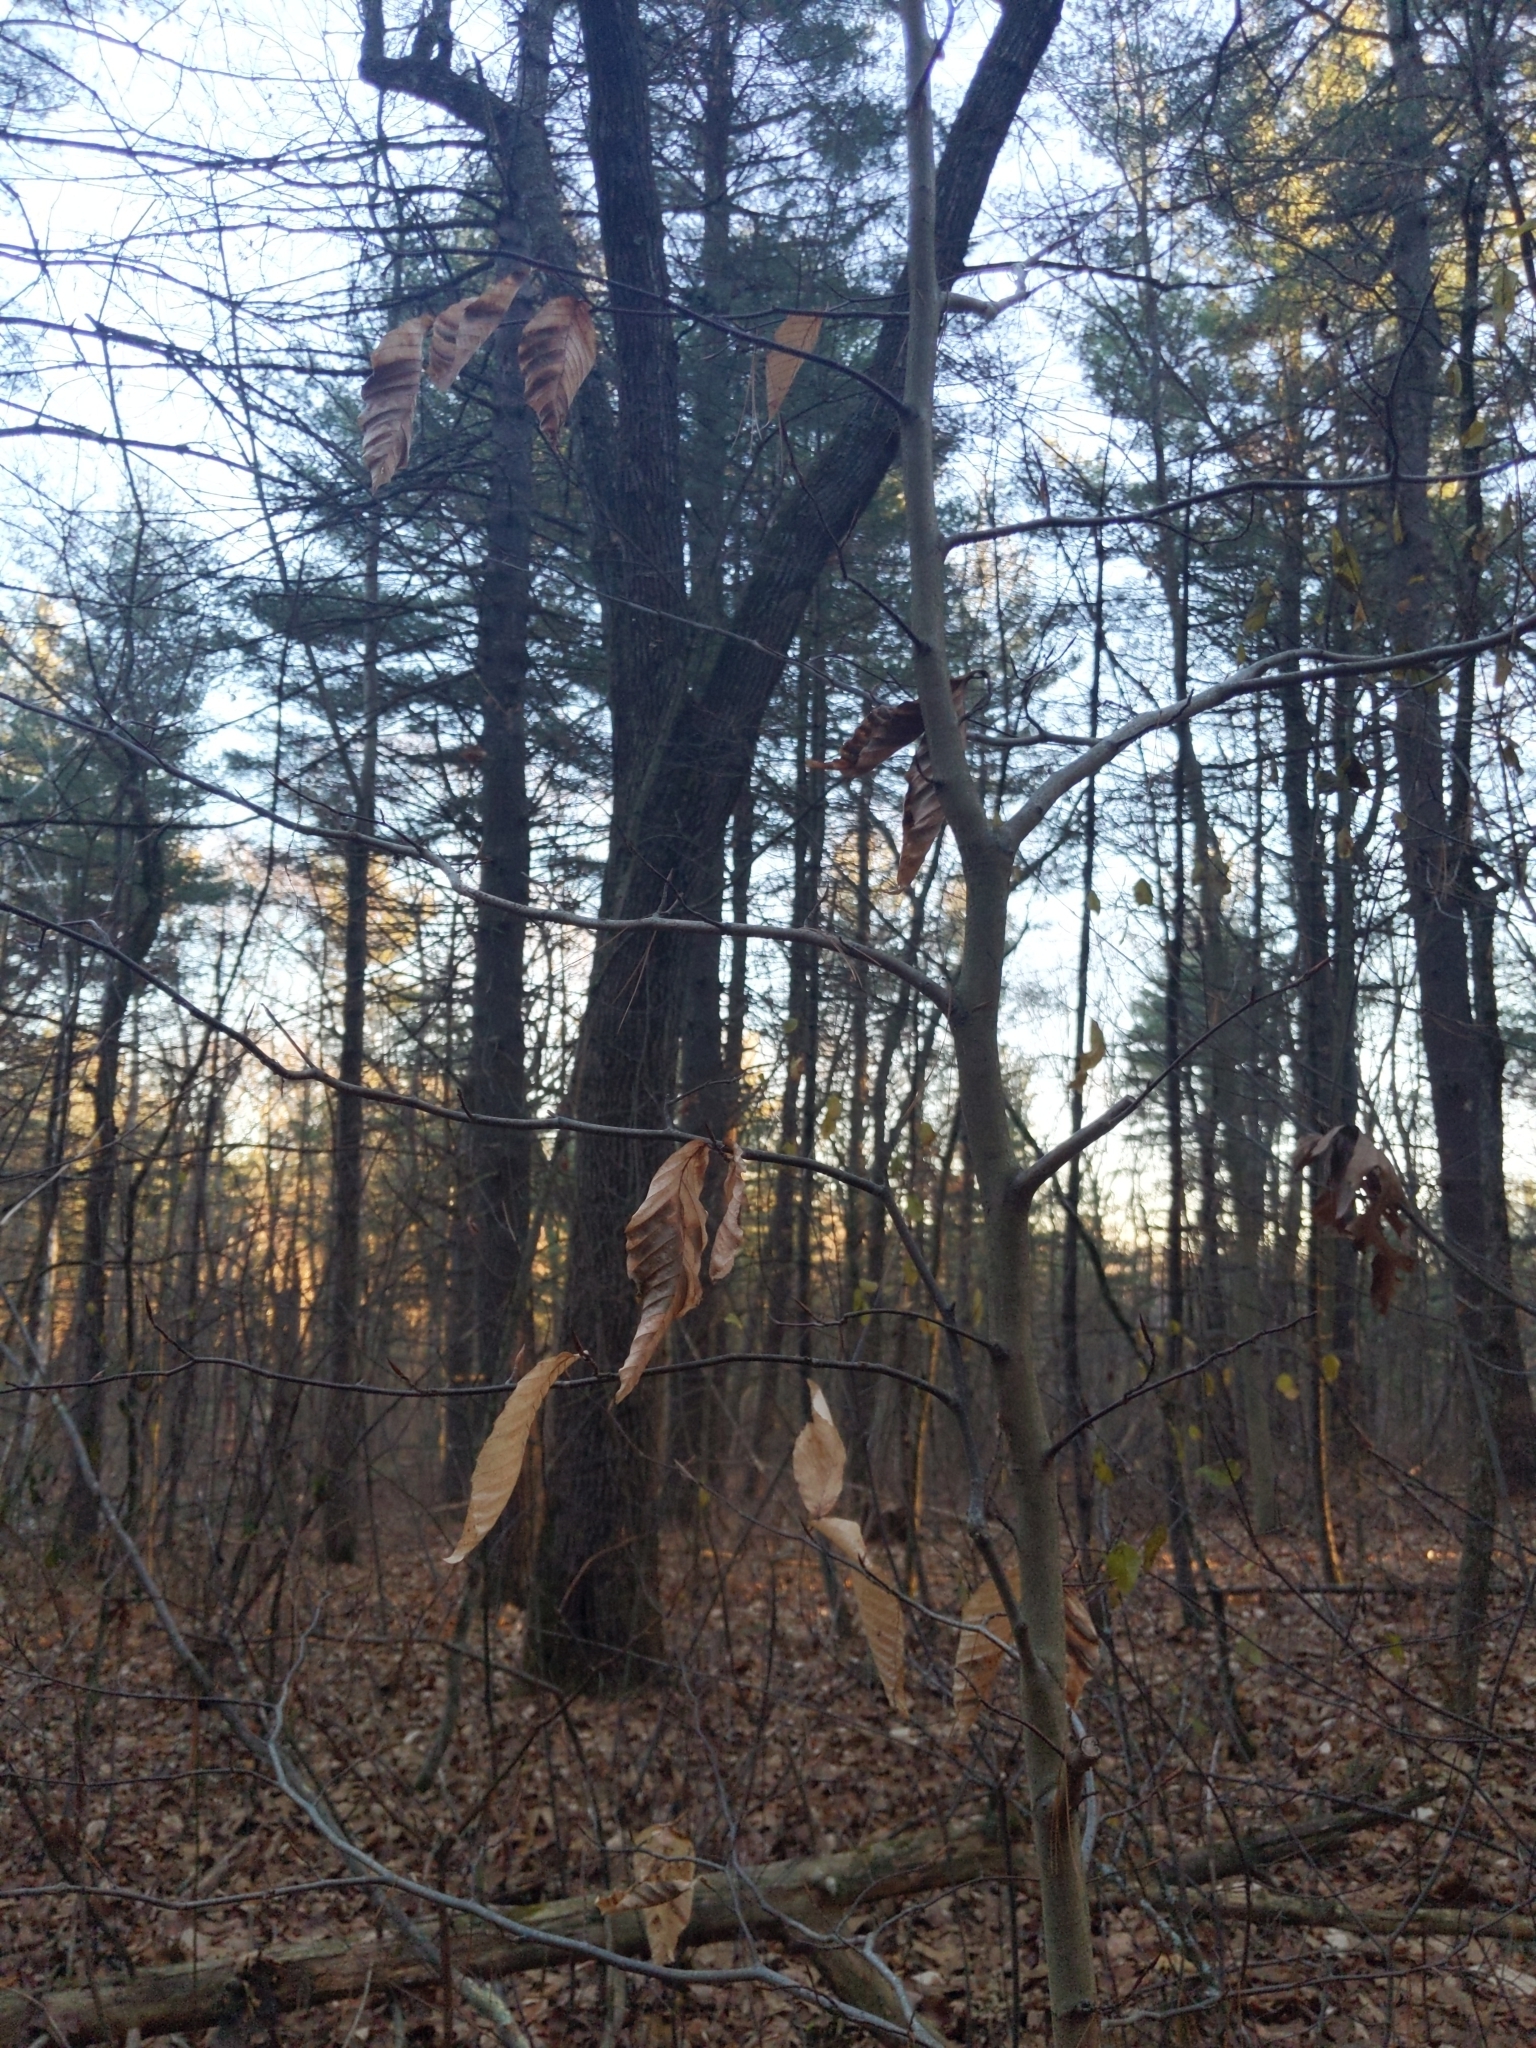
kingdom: Animalia
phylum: Nematoda
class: Chromadorea
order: Rhabditida
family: Anguinidae
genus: Litylenchus
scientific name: Litylenchus crenatae
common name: Beech leaf disease
